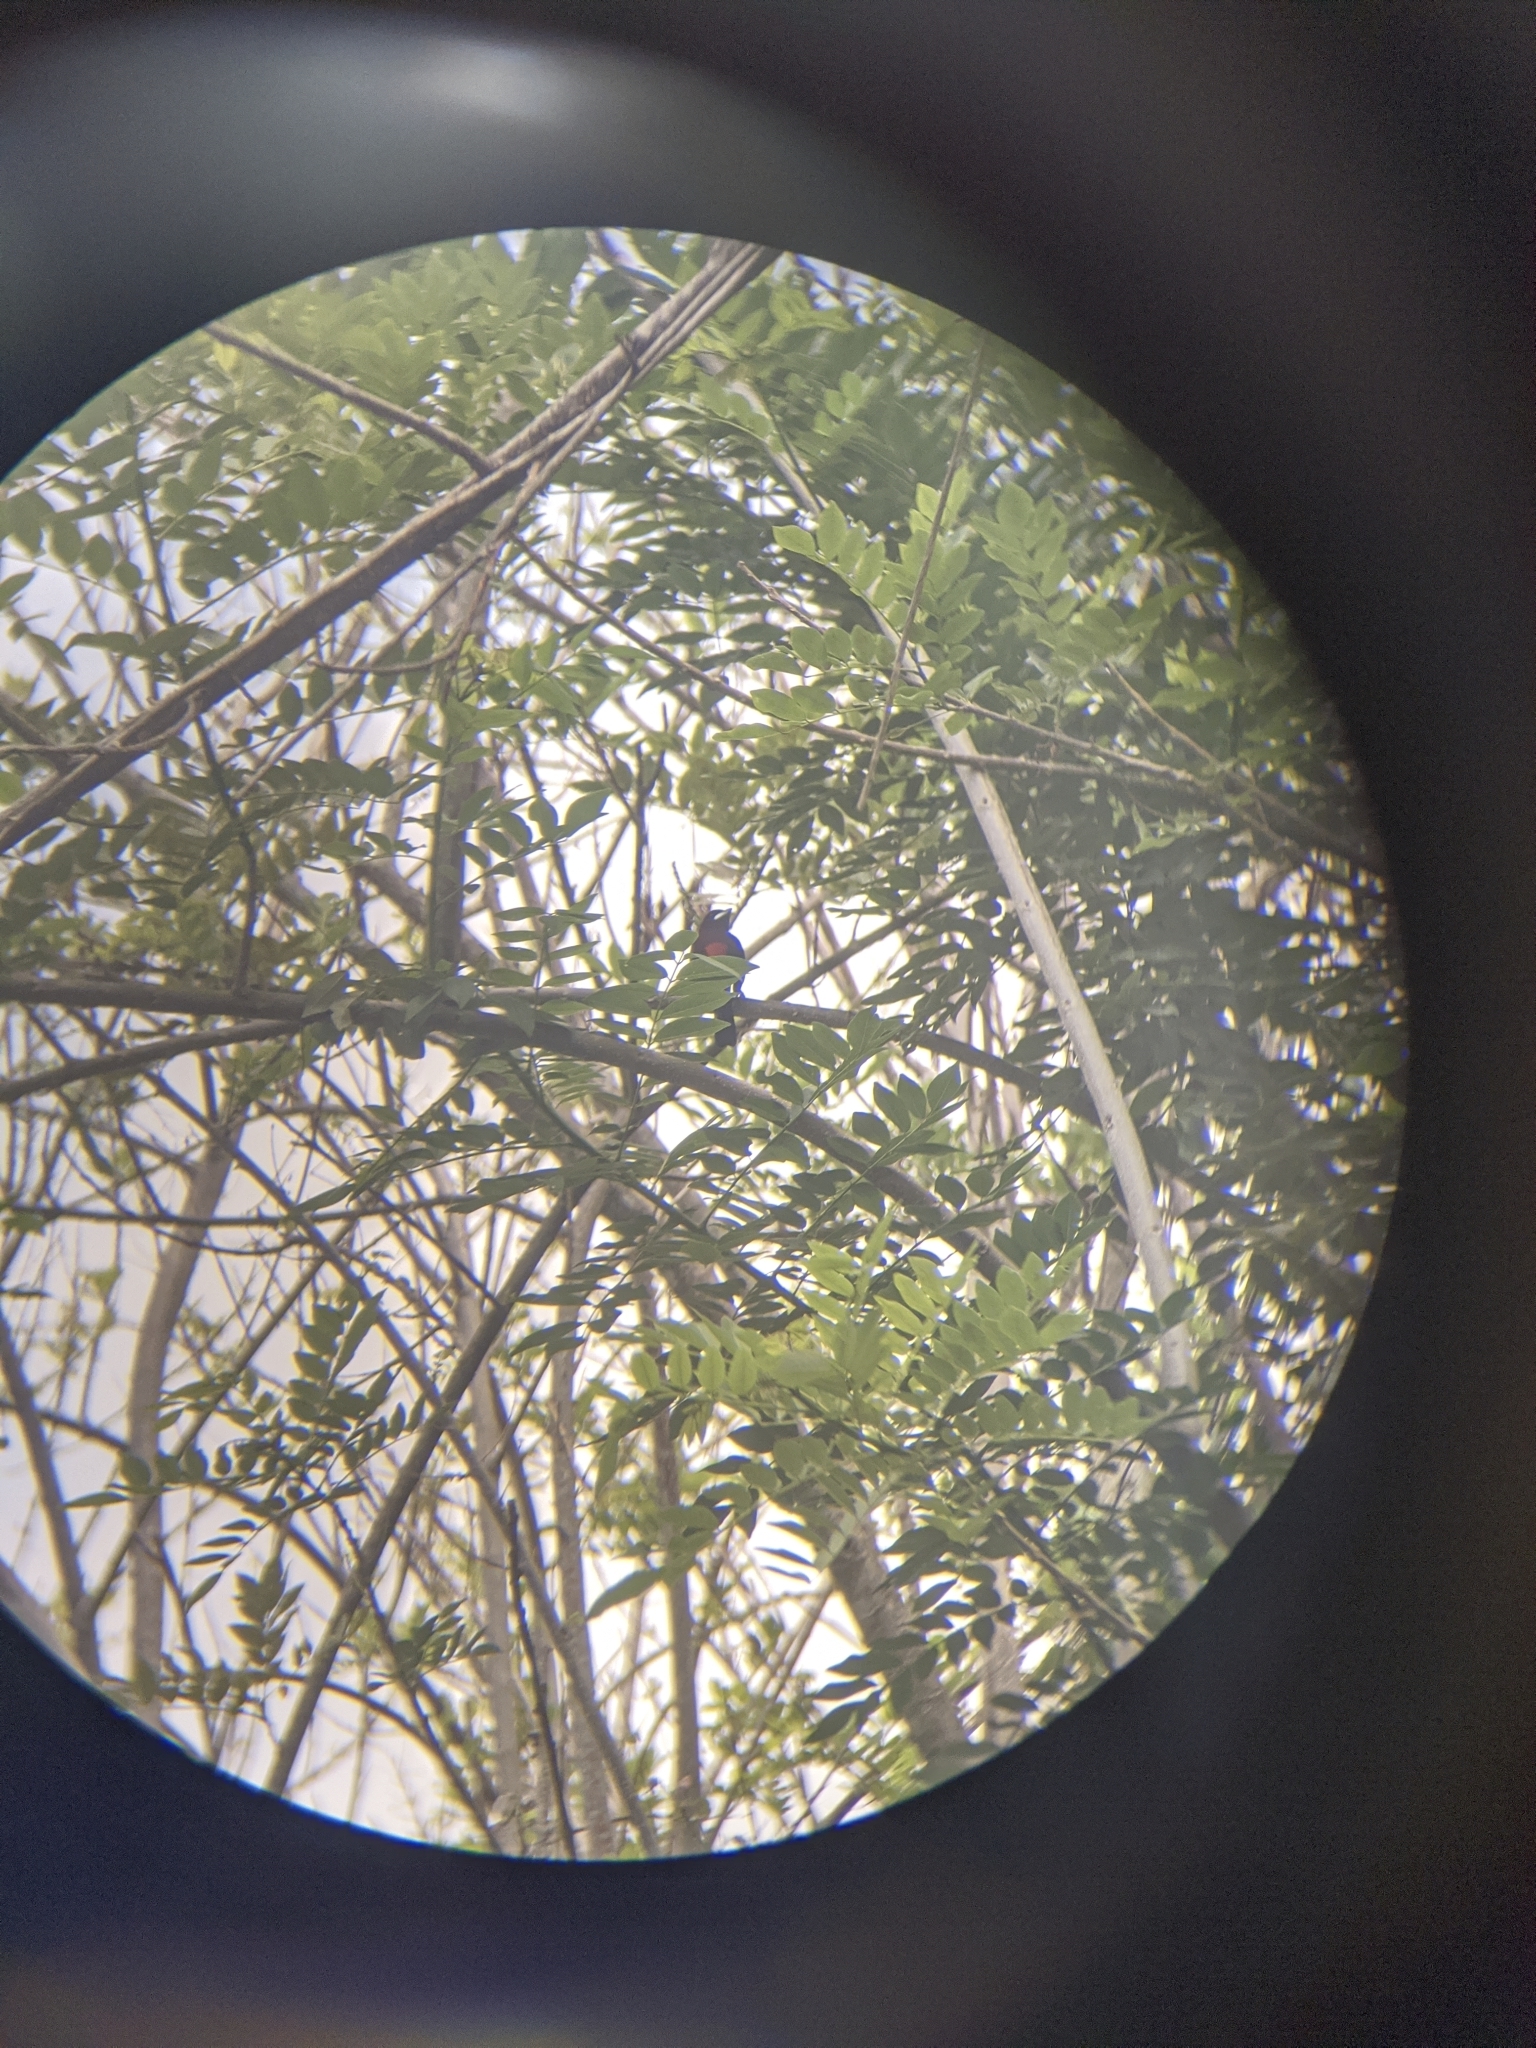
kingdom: Animalia
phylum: Chordata
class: Aves
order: Passeriformes
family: Thraupidae
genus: Ramphocelus
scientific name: Ramphocelus dimidiatus
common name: Crimson-backed tanager
